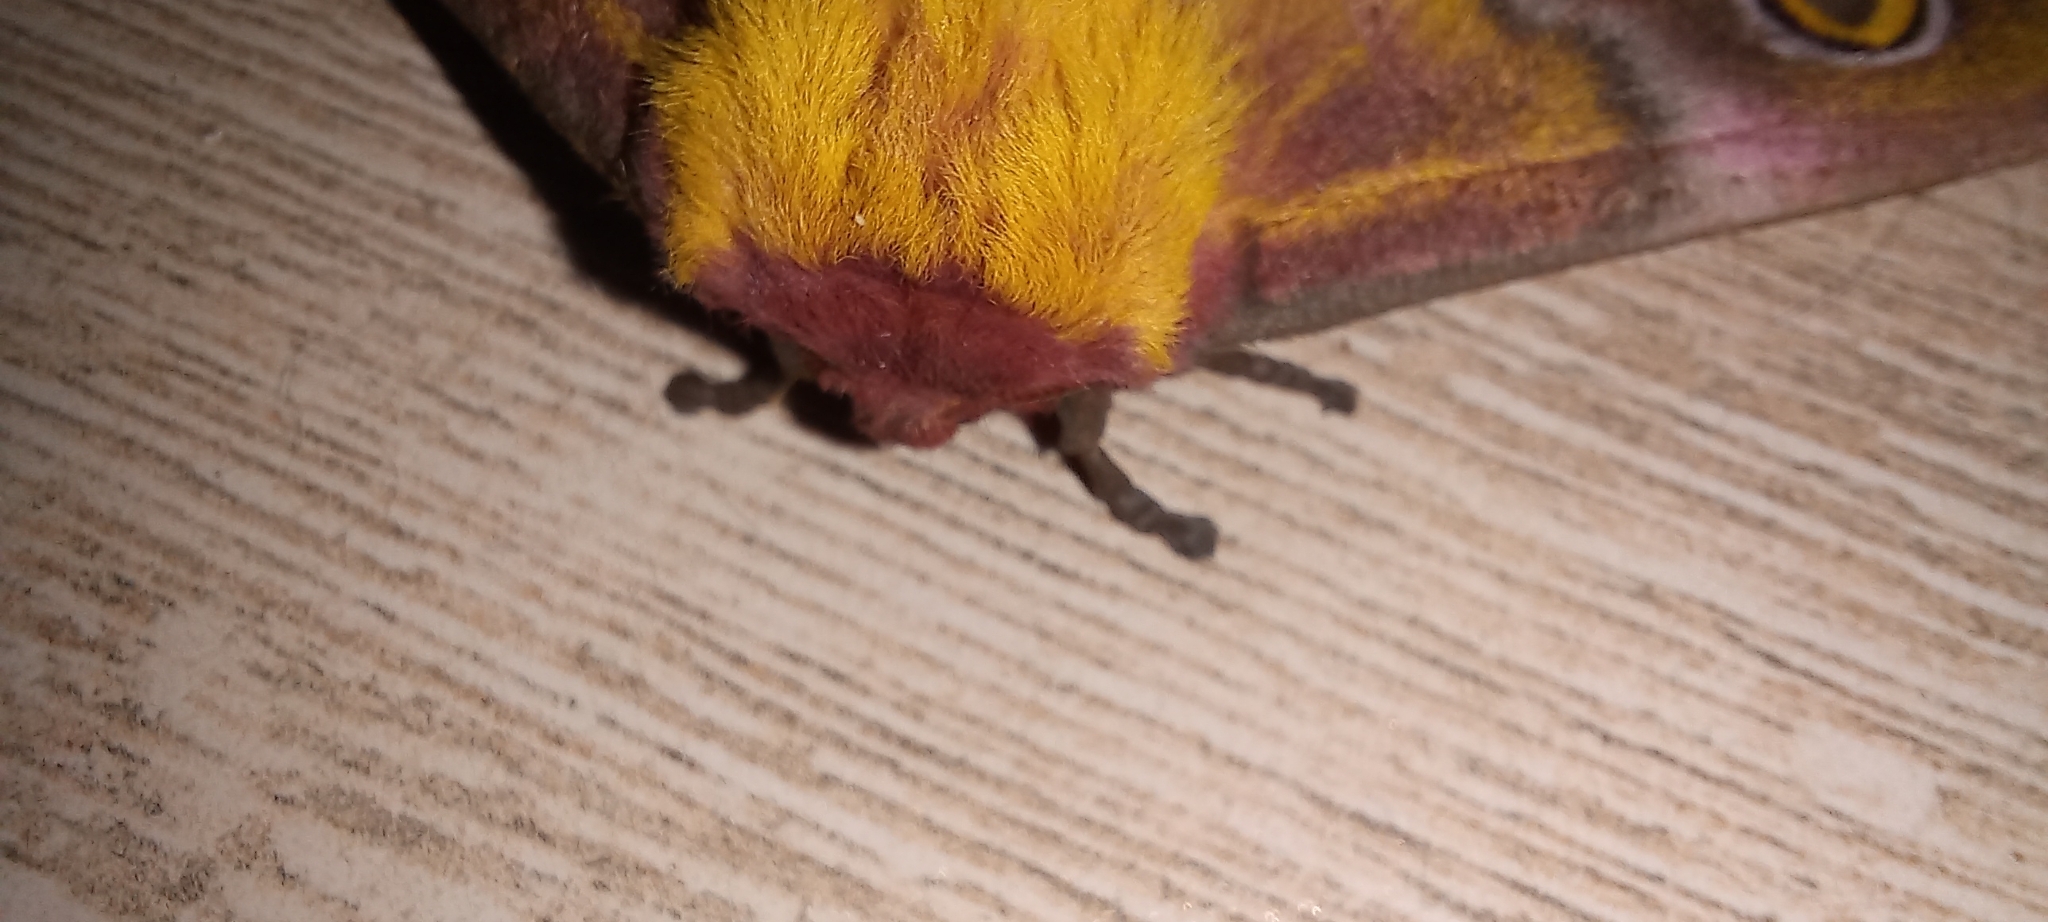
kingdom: Animalia
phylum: Arthropoda
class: Insecta
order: Lepidoptera
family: Saturniidae
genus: Nudaurelia
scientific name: Nudaurelia cytherea
